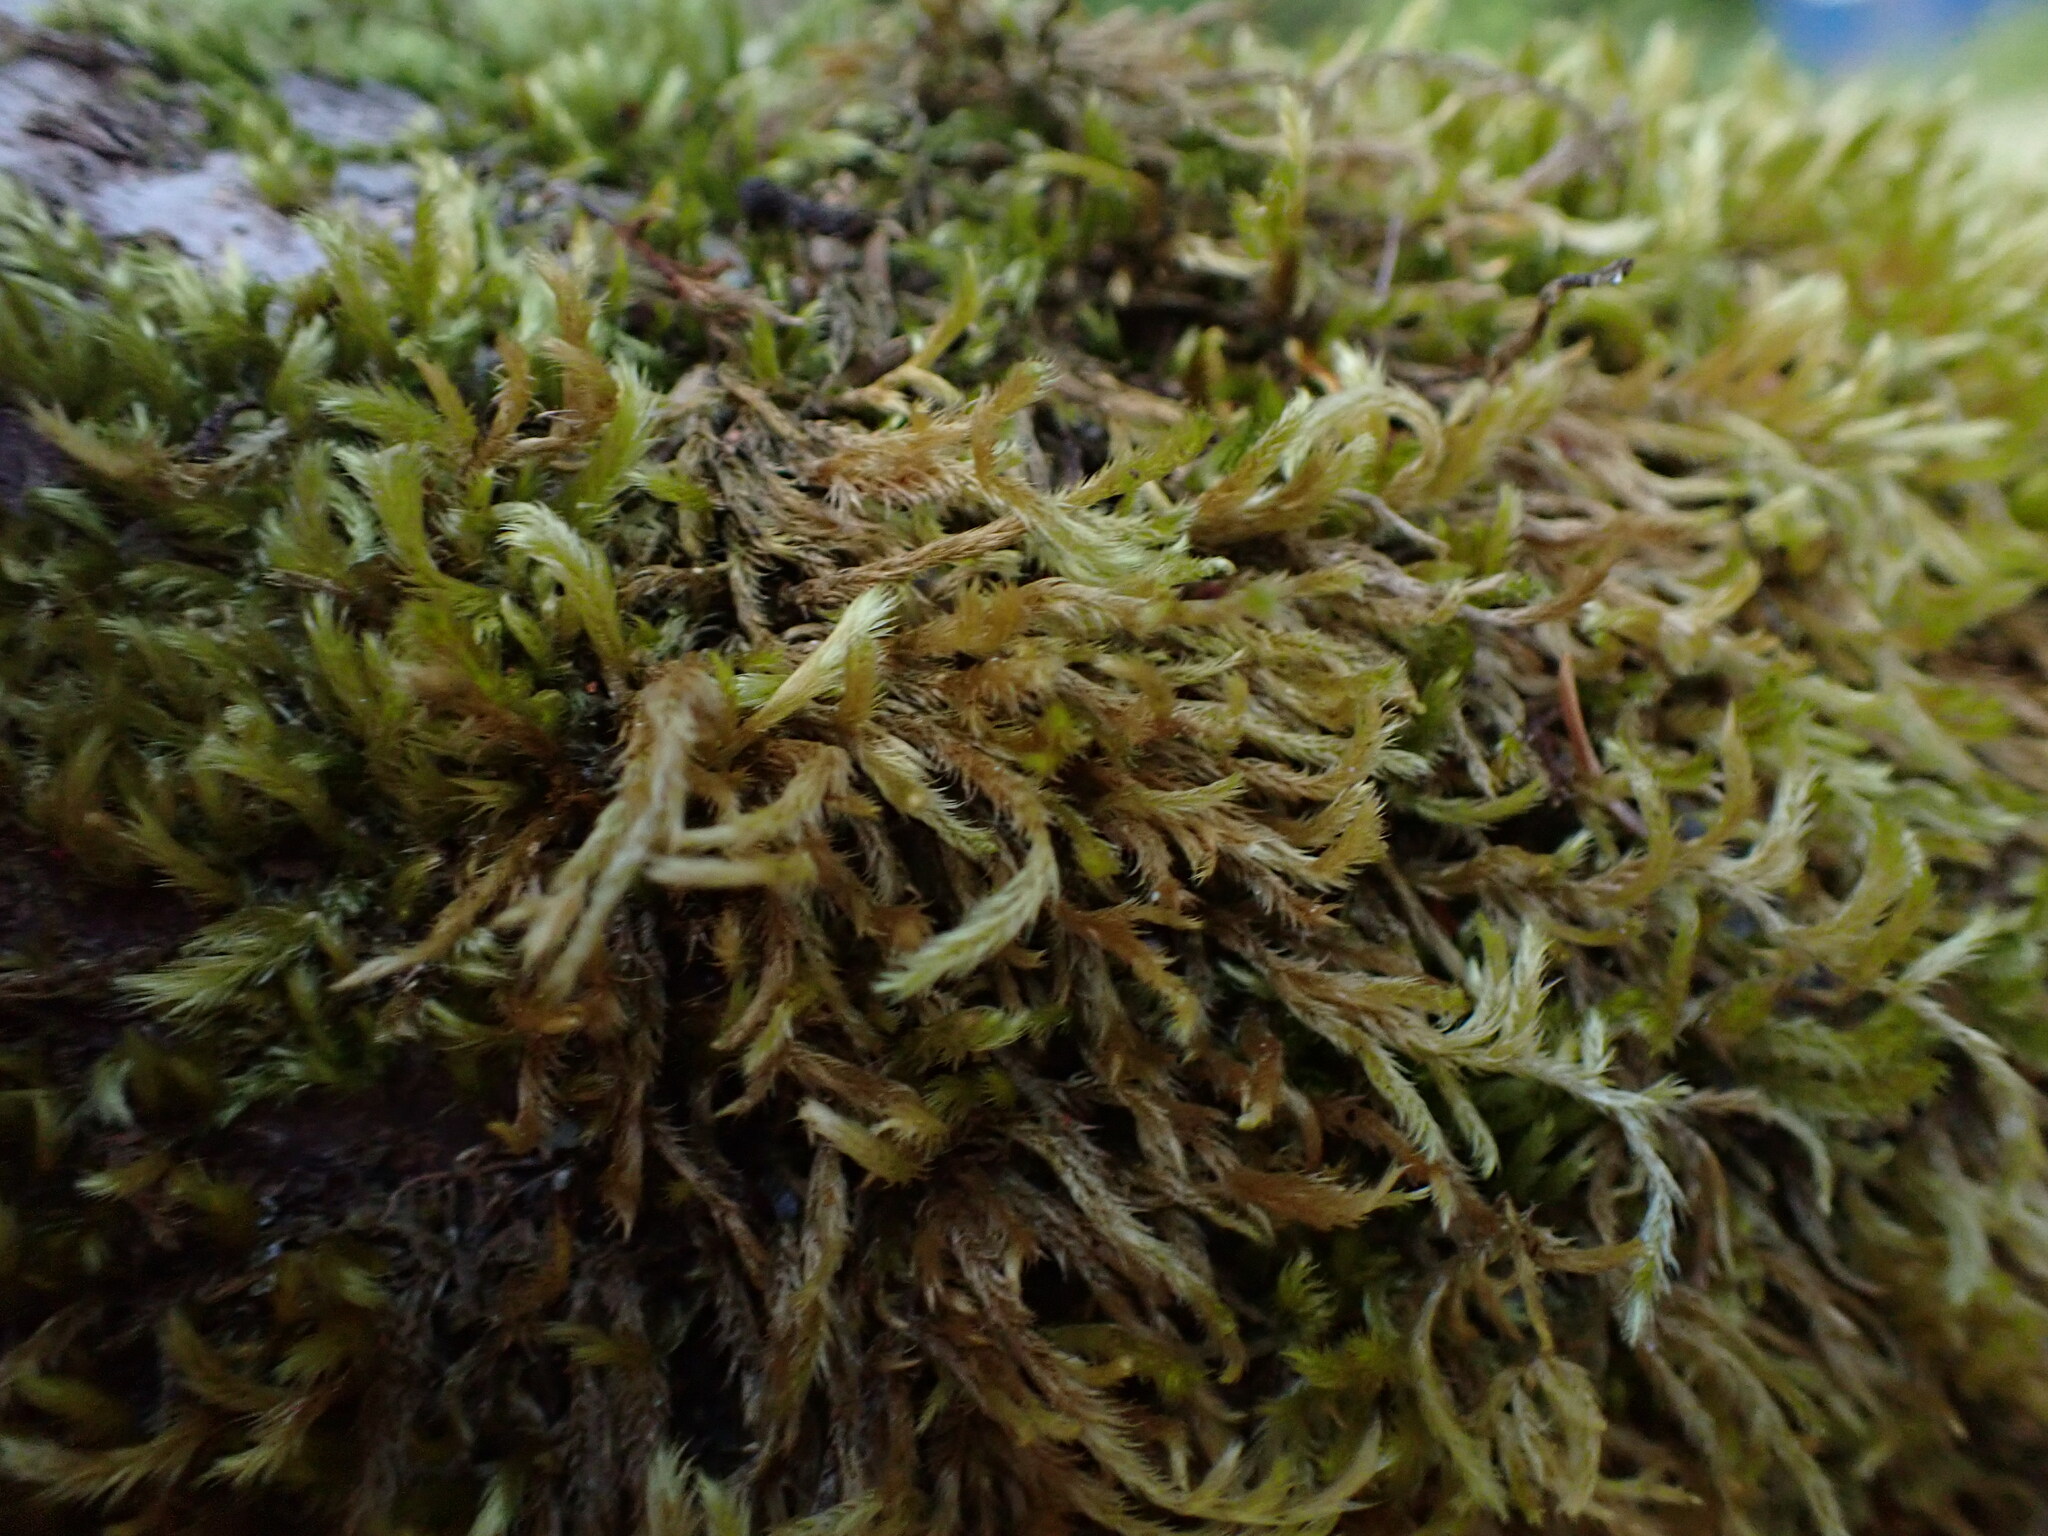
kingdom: Plantae
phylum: Bryophyta
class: Bryopsida
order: Hypnales
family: Brachytheciaceae
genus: Homalothecium
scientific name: Homalothecium fulgescens
